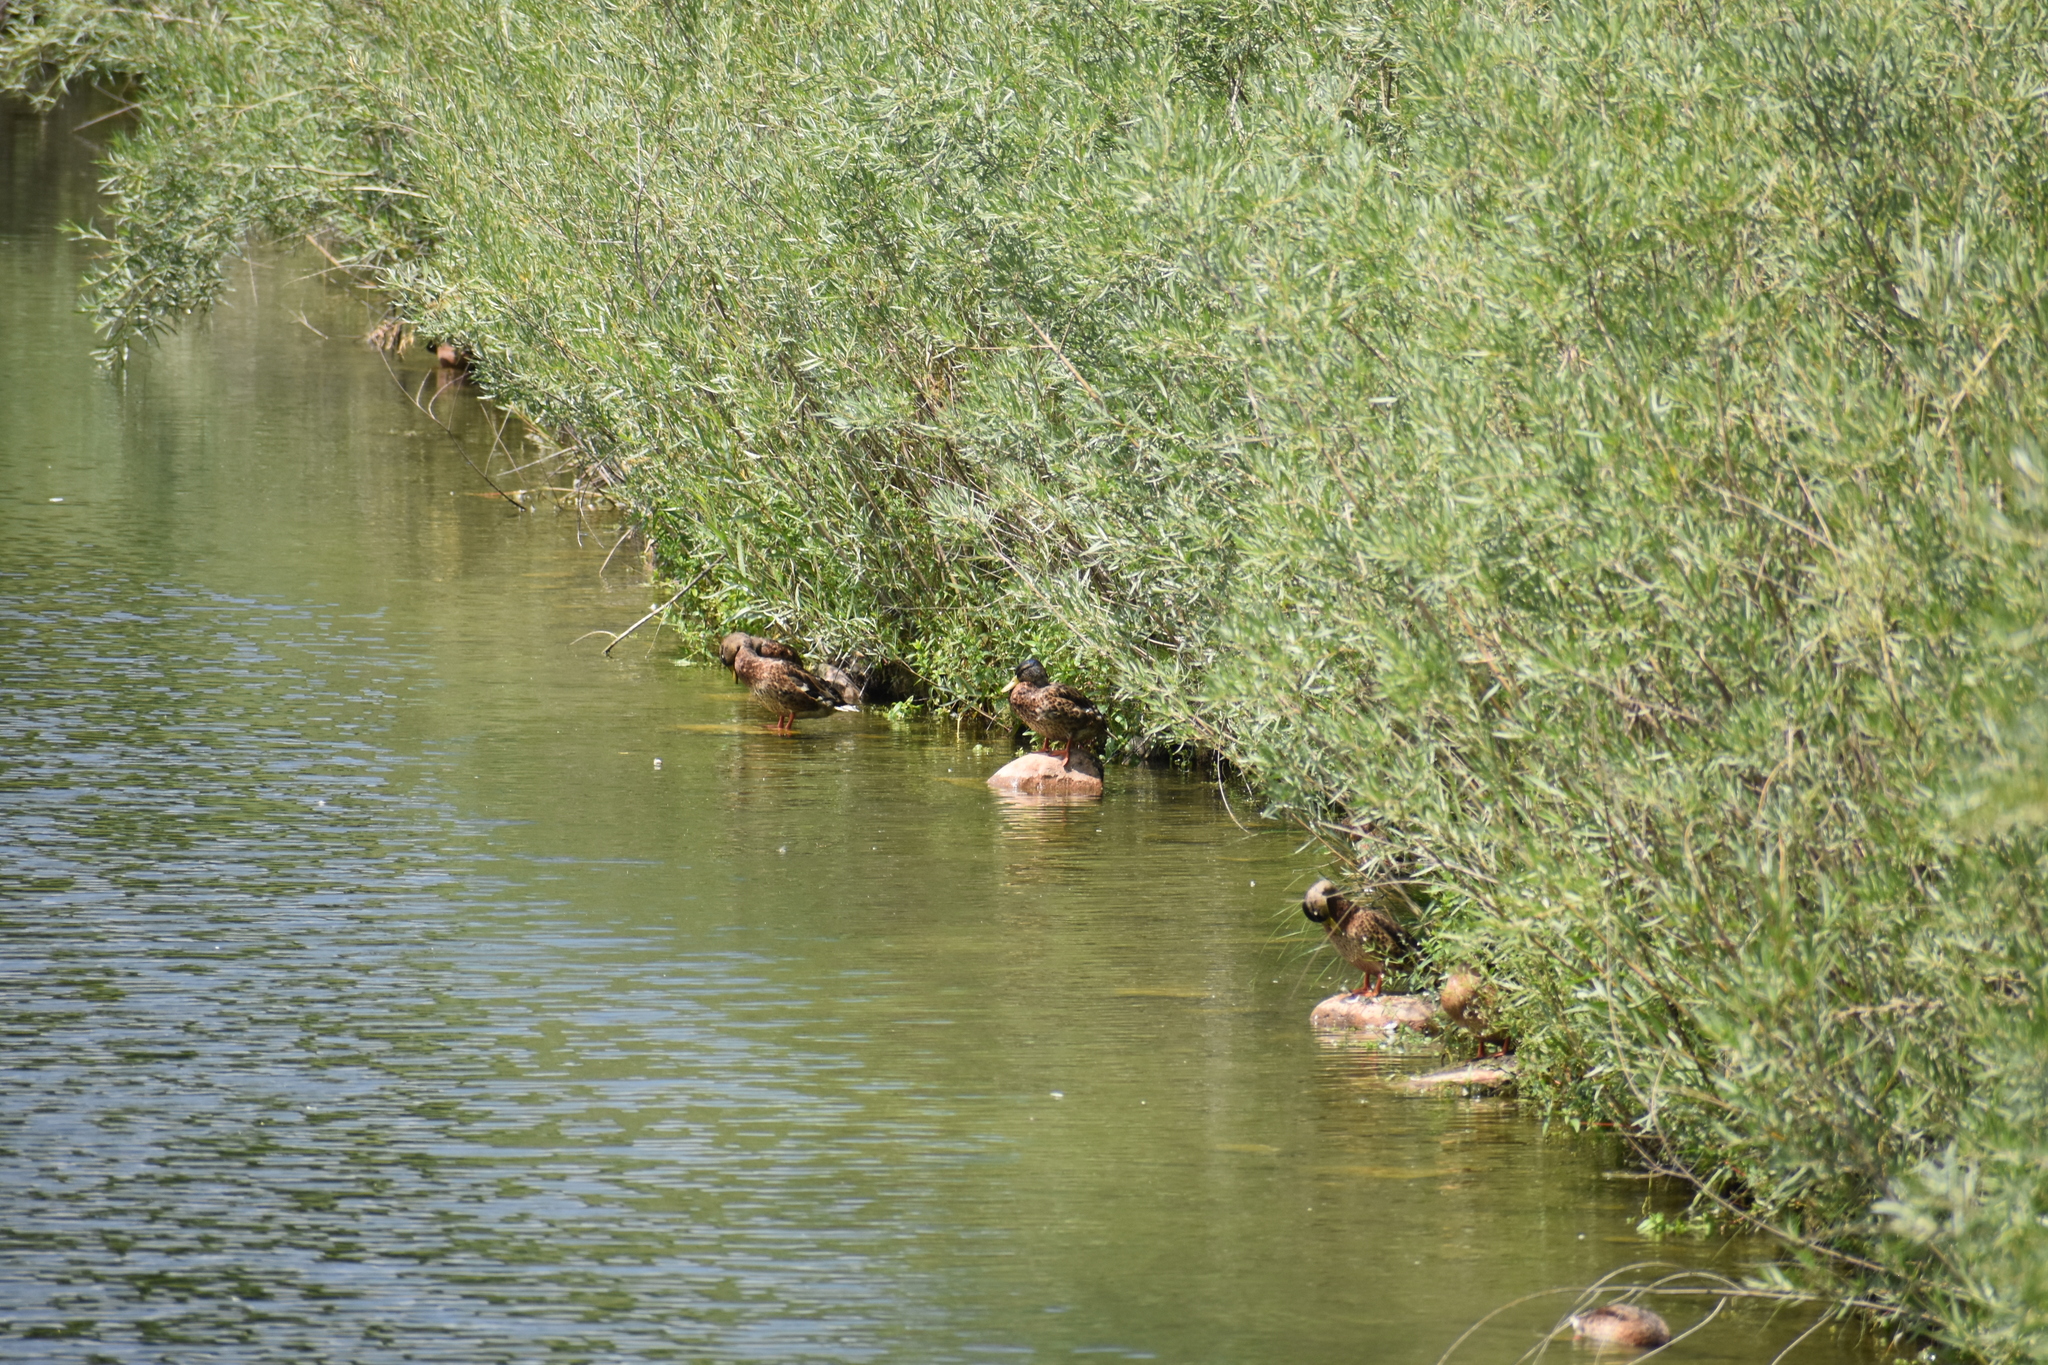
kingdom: Animalia
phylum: Chordata
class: Aves
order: Anseriformes
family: Anatidae
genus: Anas
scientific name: Anas platyrhynchos
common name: Mallard
